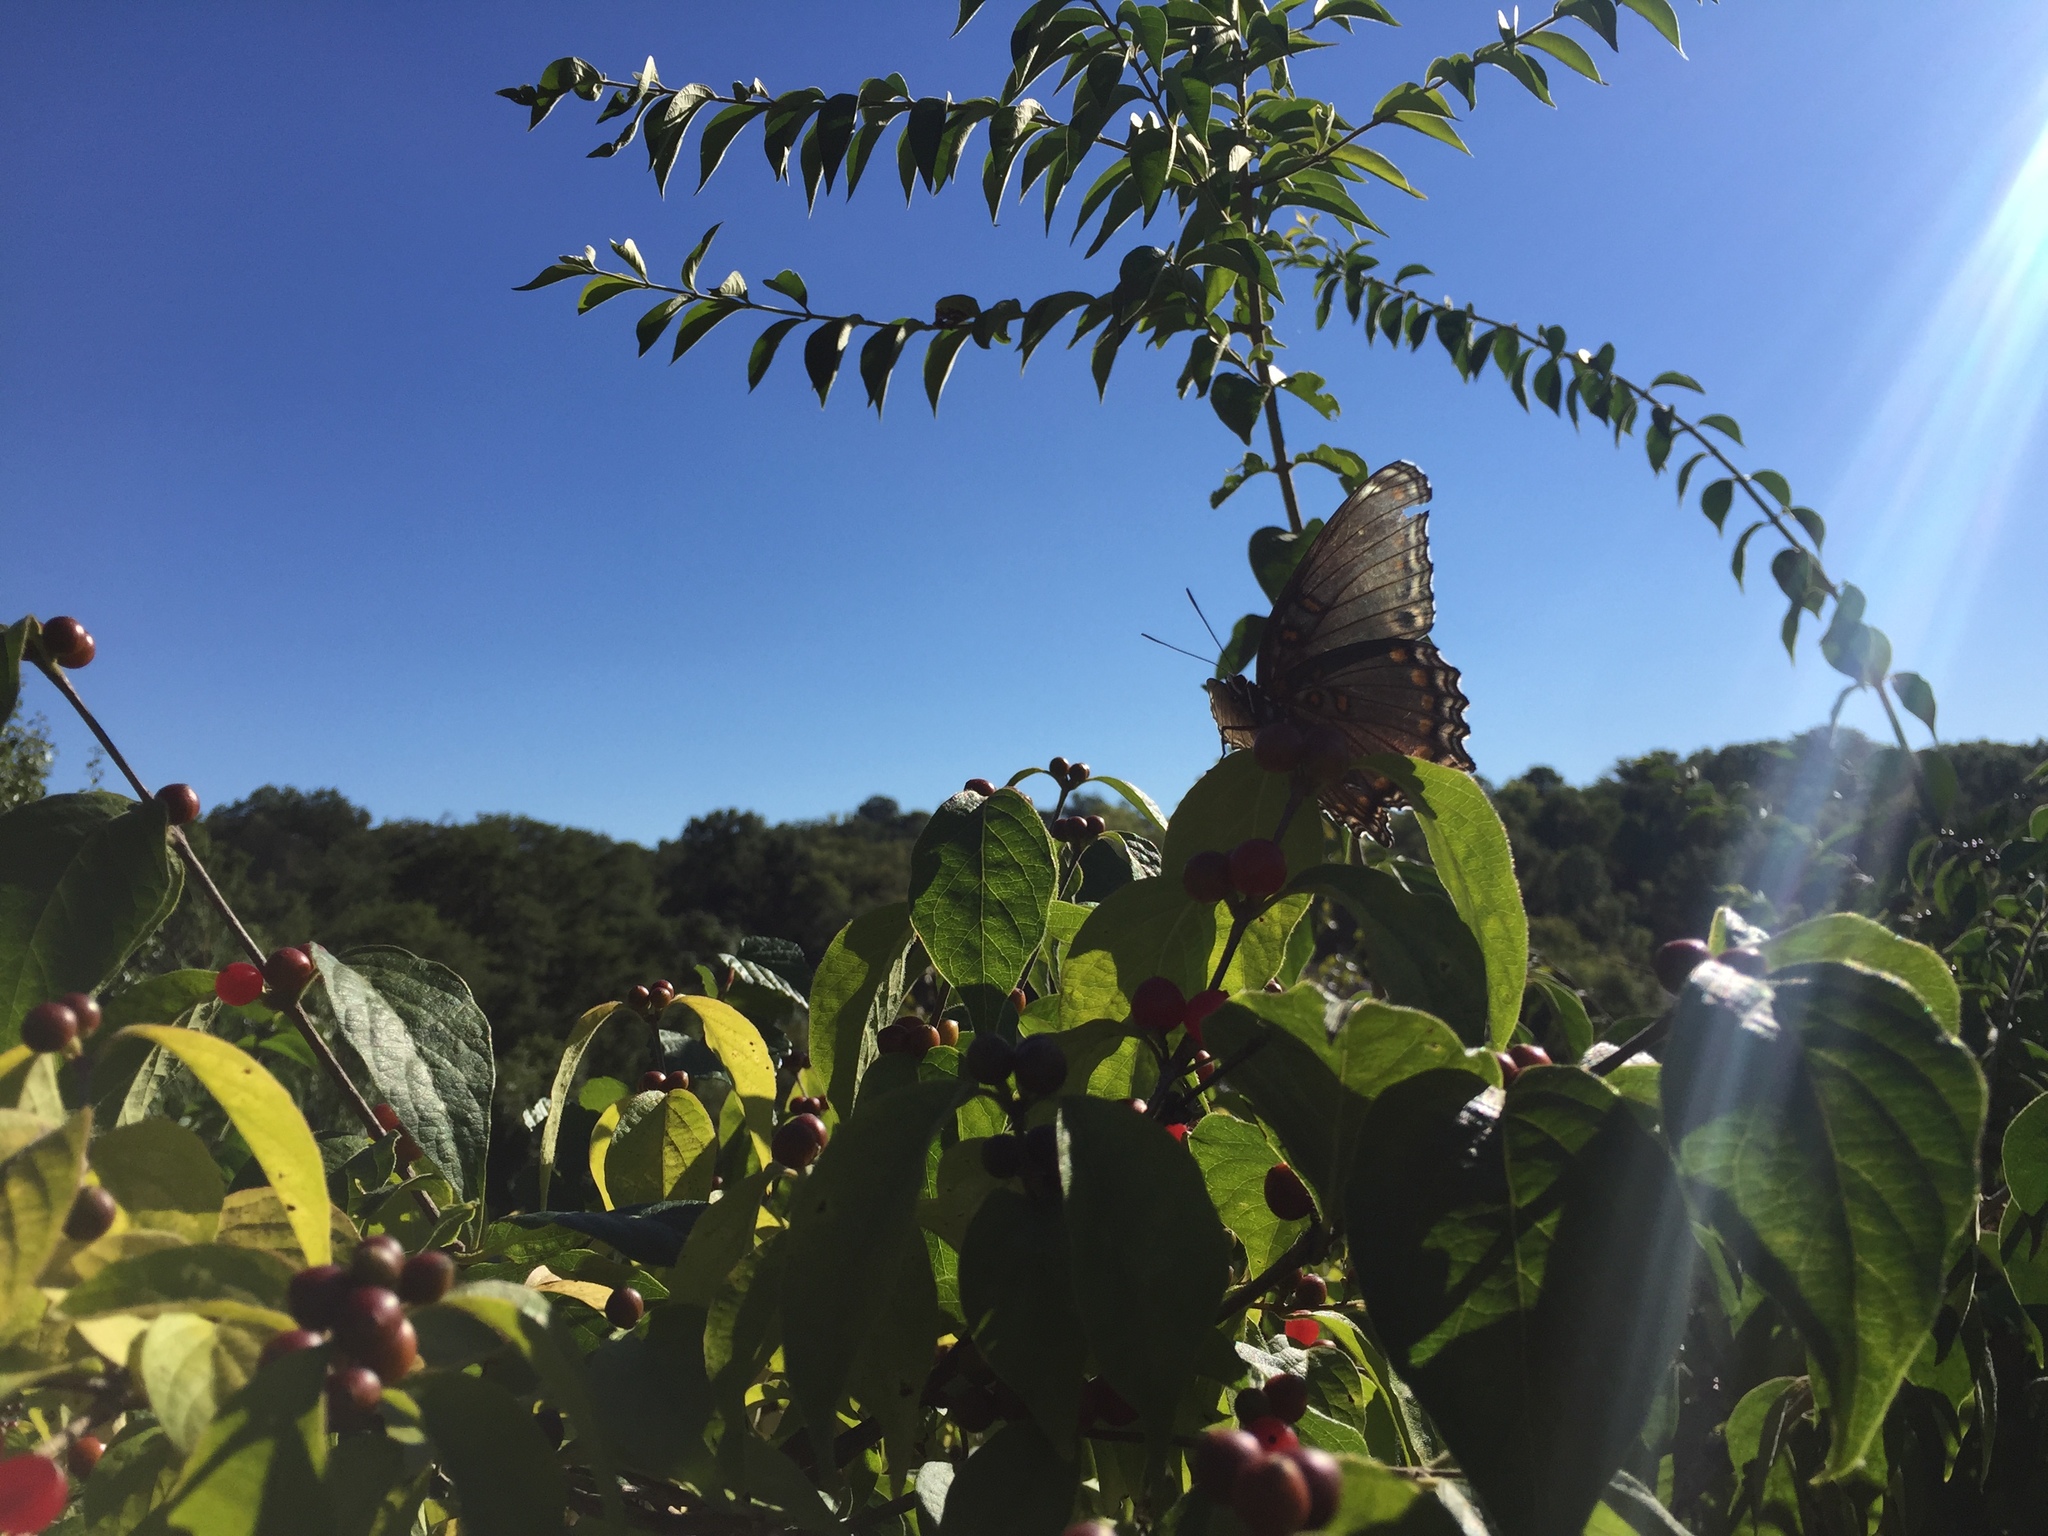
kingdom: Plantae
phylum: Tracheophyta
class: Magnoliopsida
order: Dipsacales
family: Caprifoliaceae
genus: Lonicera
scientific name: Lonicera maackii
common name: Amur honeysuckle
